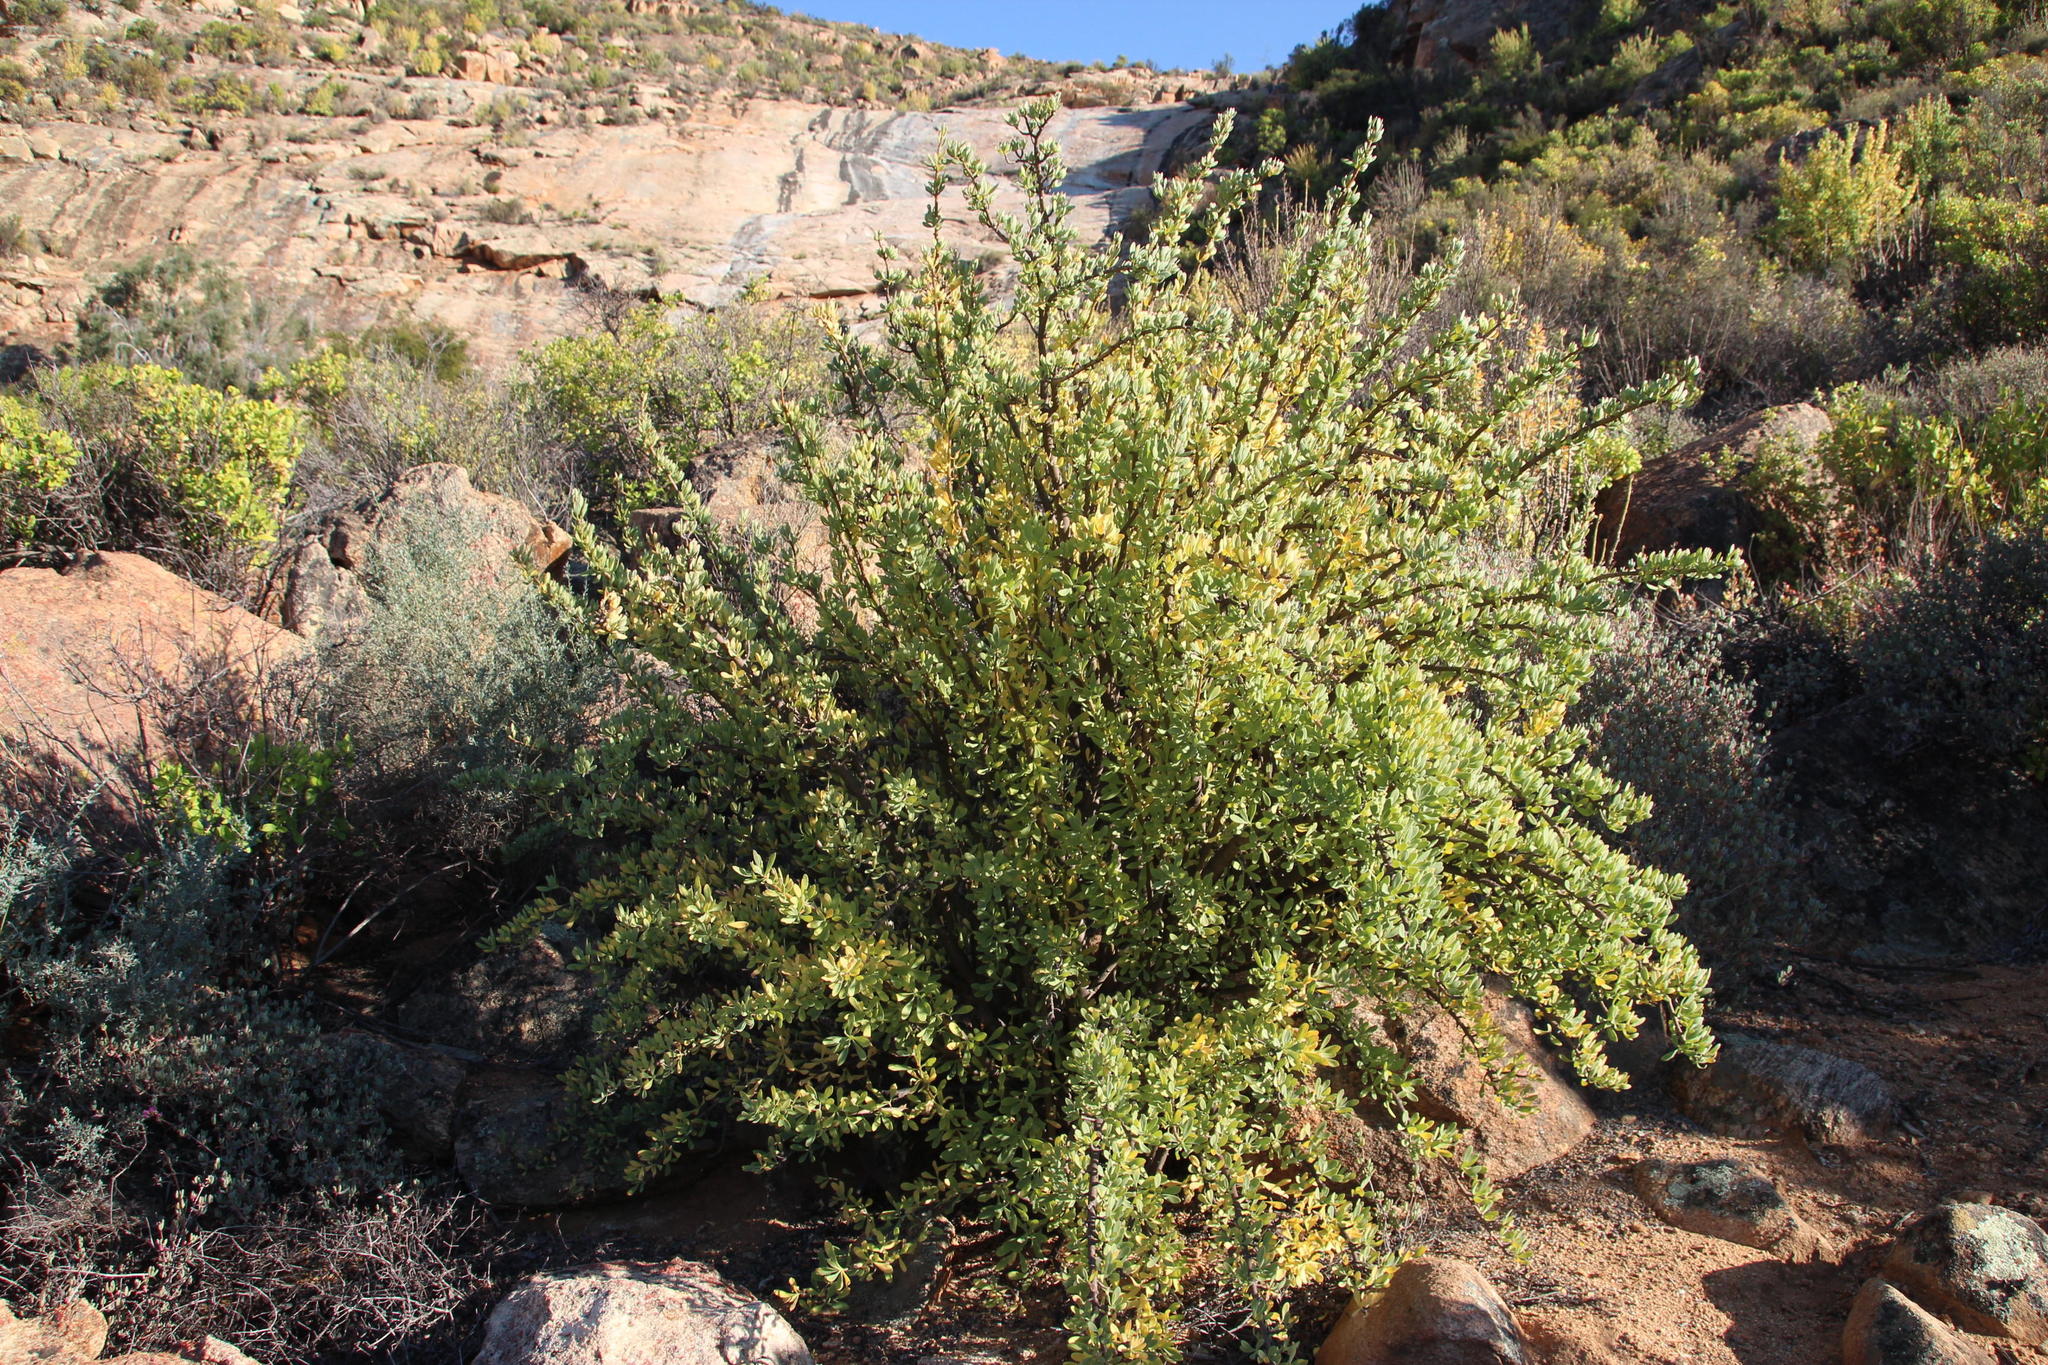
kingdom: Plantae
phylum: Tracheophyta
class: Magnoliopsida
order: Asterales
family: Asteraceae
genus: Othonna
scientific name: Othonna cerarioides
